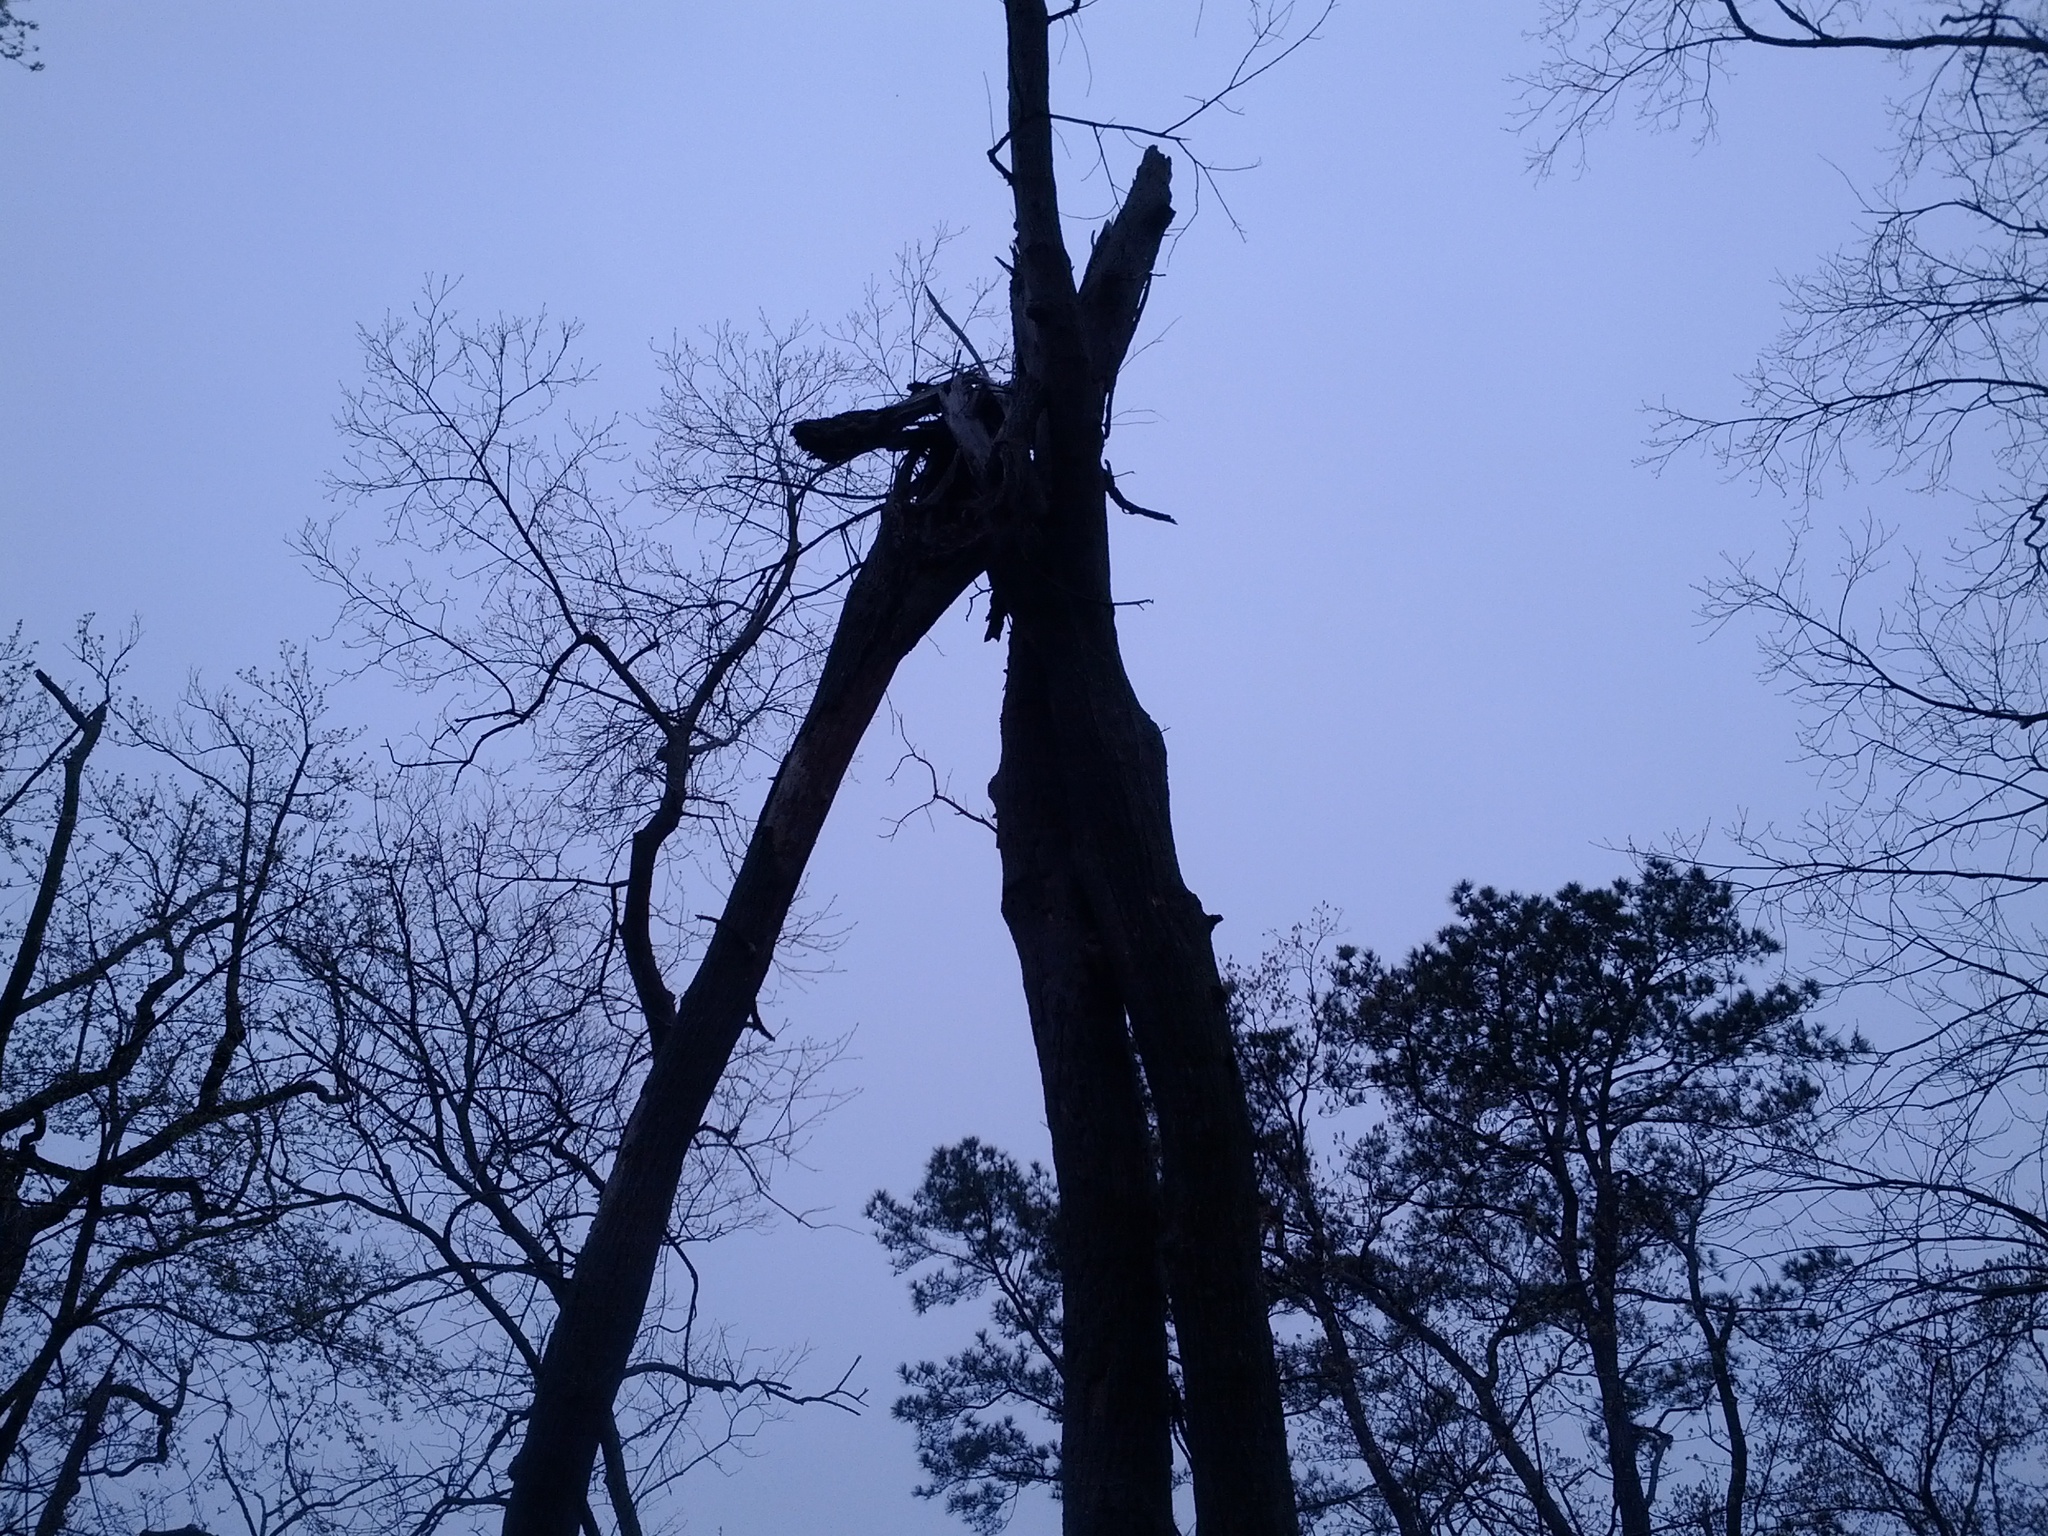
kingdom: Animalia
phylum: Chordata
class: Aves
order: Piciformes
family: Picidae
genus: Melanerpes
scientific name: Melanerpes carolinus
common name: Red-bellied woodpecker
